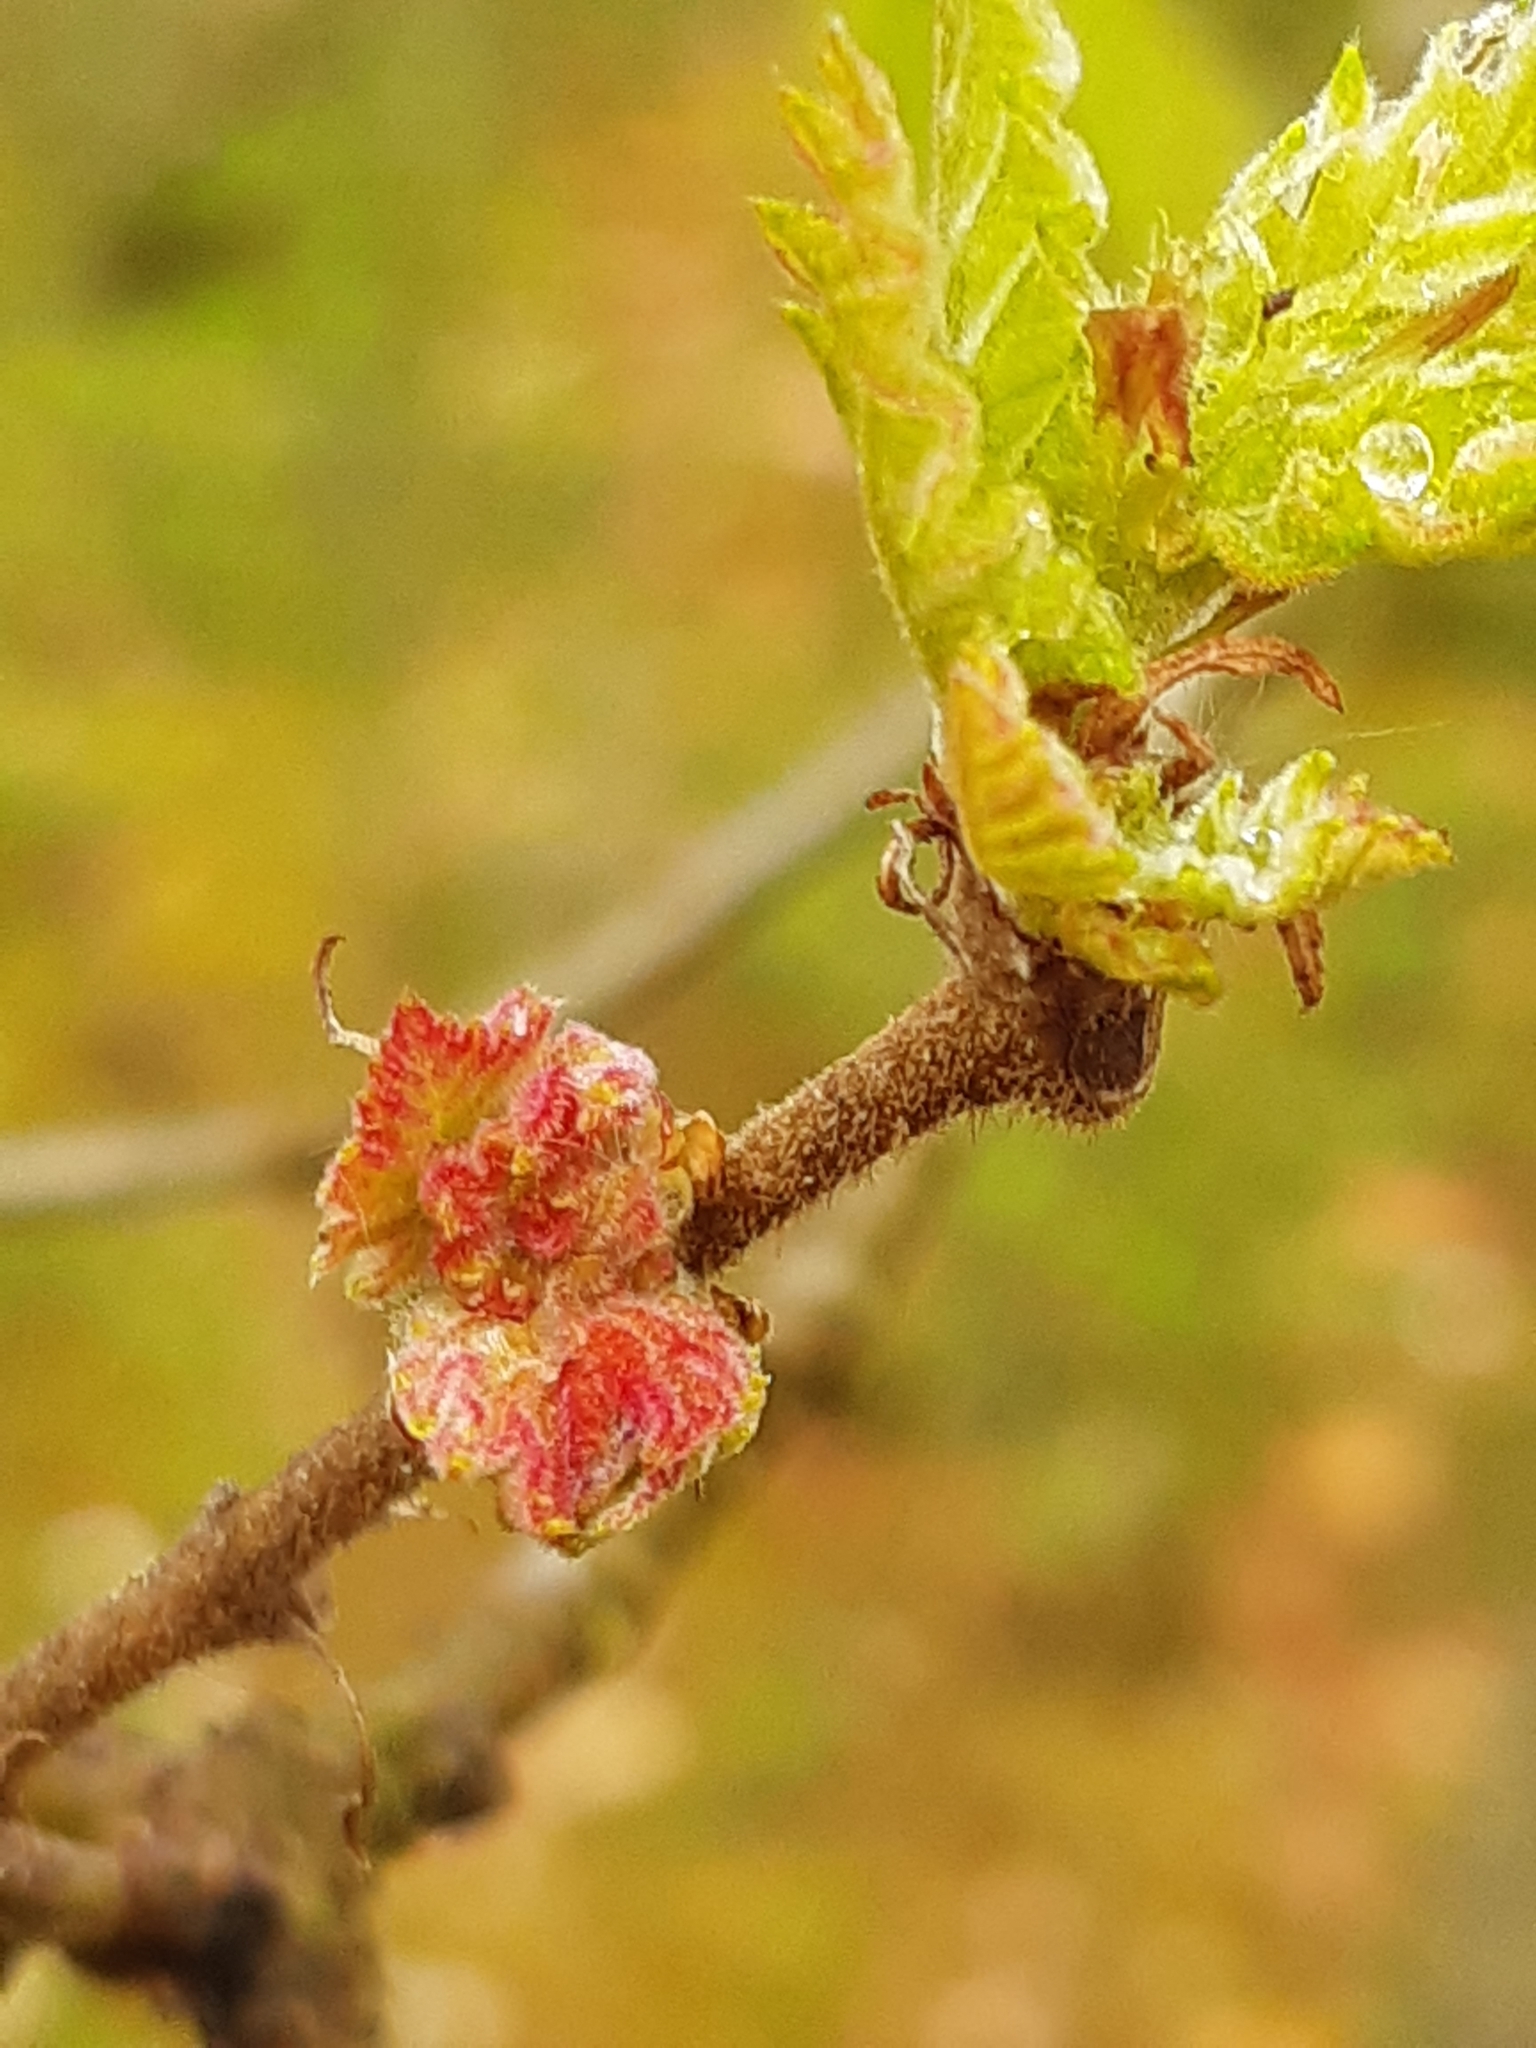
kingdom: Animalia
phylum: Arthropoda
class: Insecta
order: Hymenoptera
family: Cynipidae
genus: Andricus
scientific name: Andricus multiplicatus
